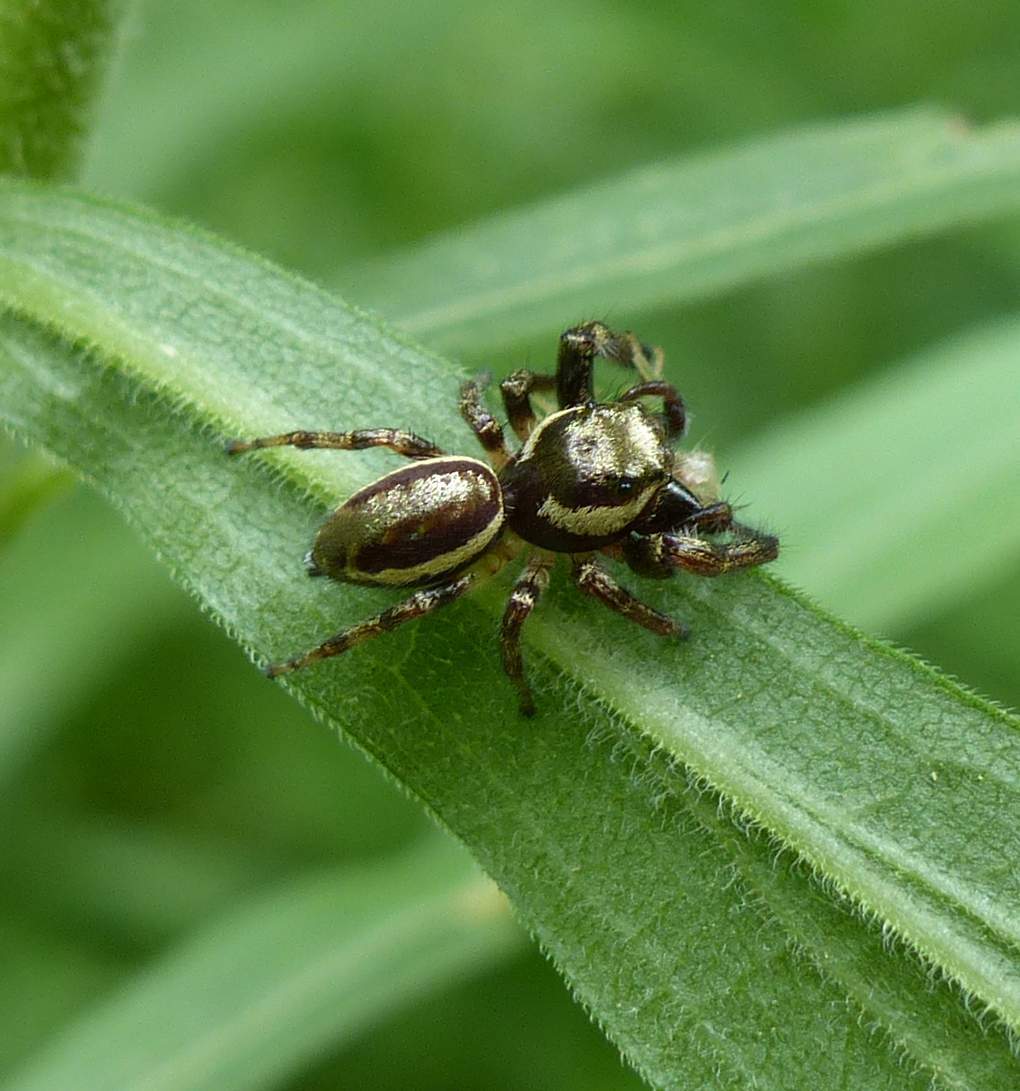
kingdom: Animalia
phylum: Arthropoda
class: Arachnida
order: Araneae
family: Salticidae
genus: Eris
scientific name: Eris militaris
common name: Bronze jumper
